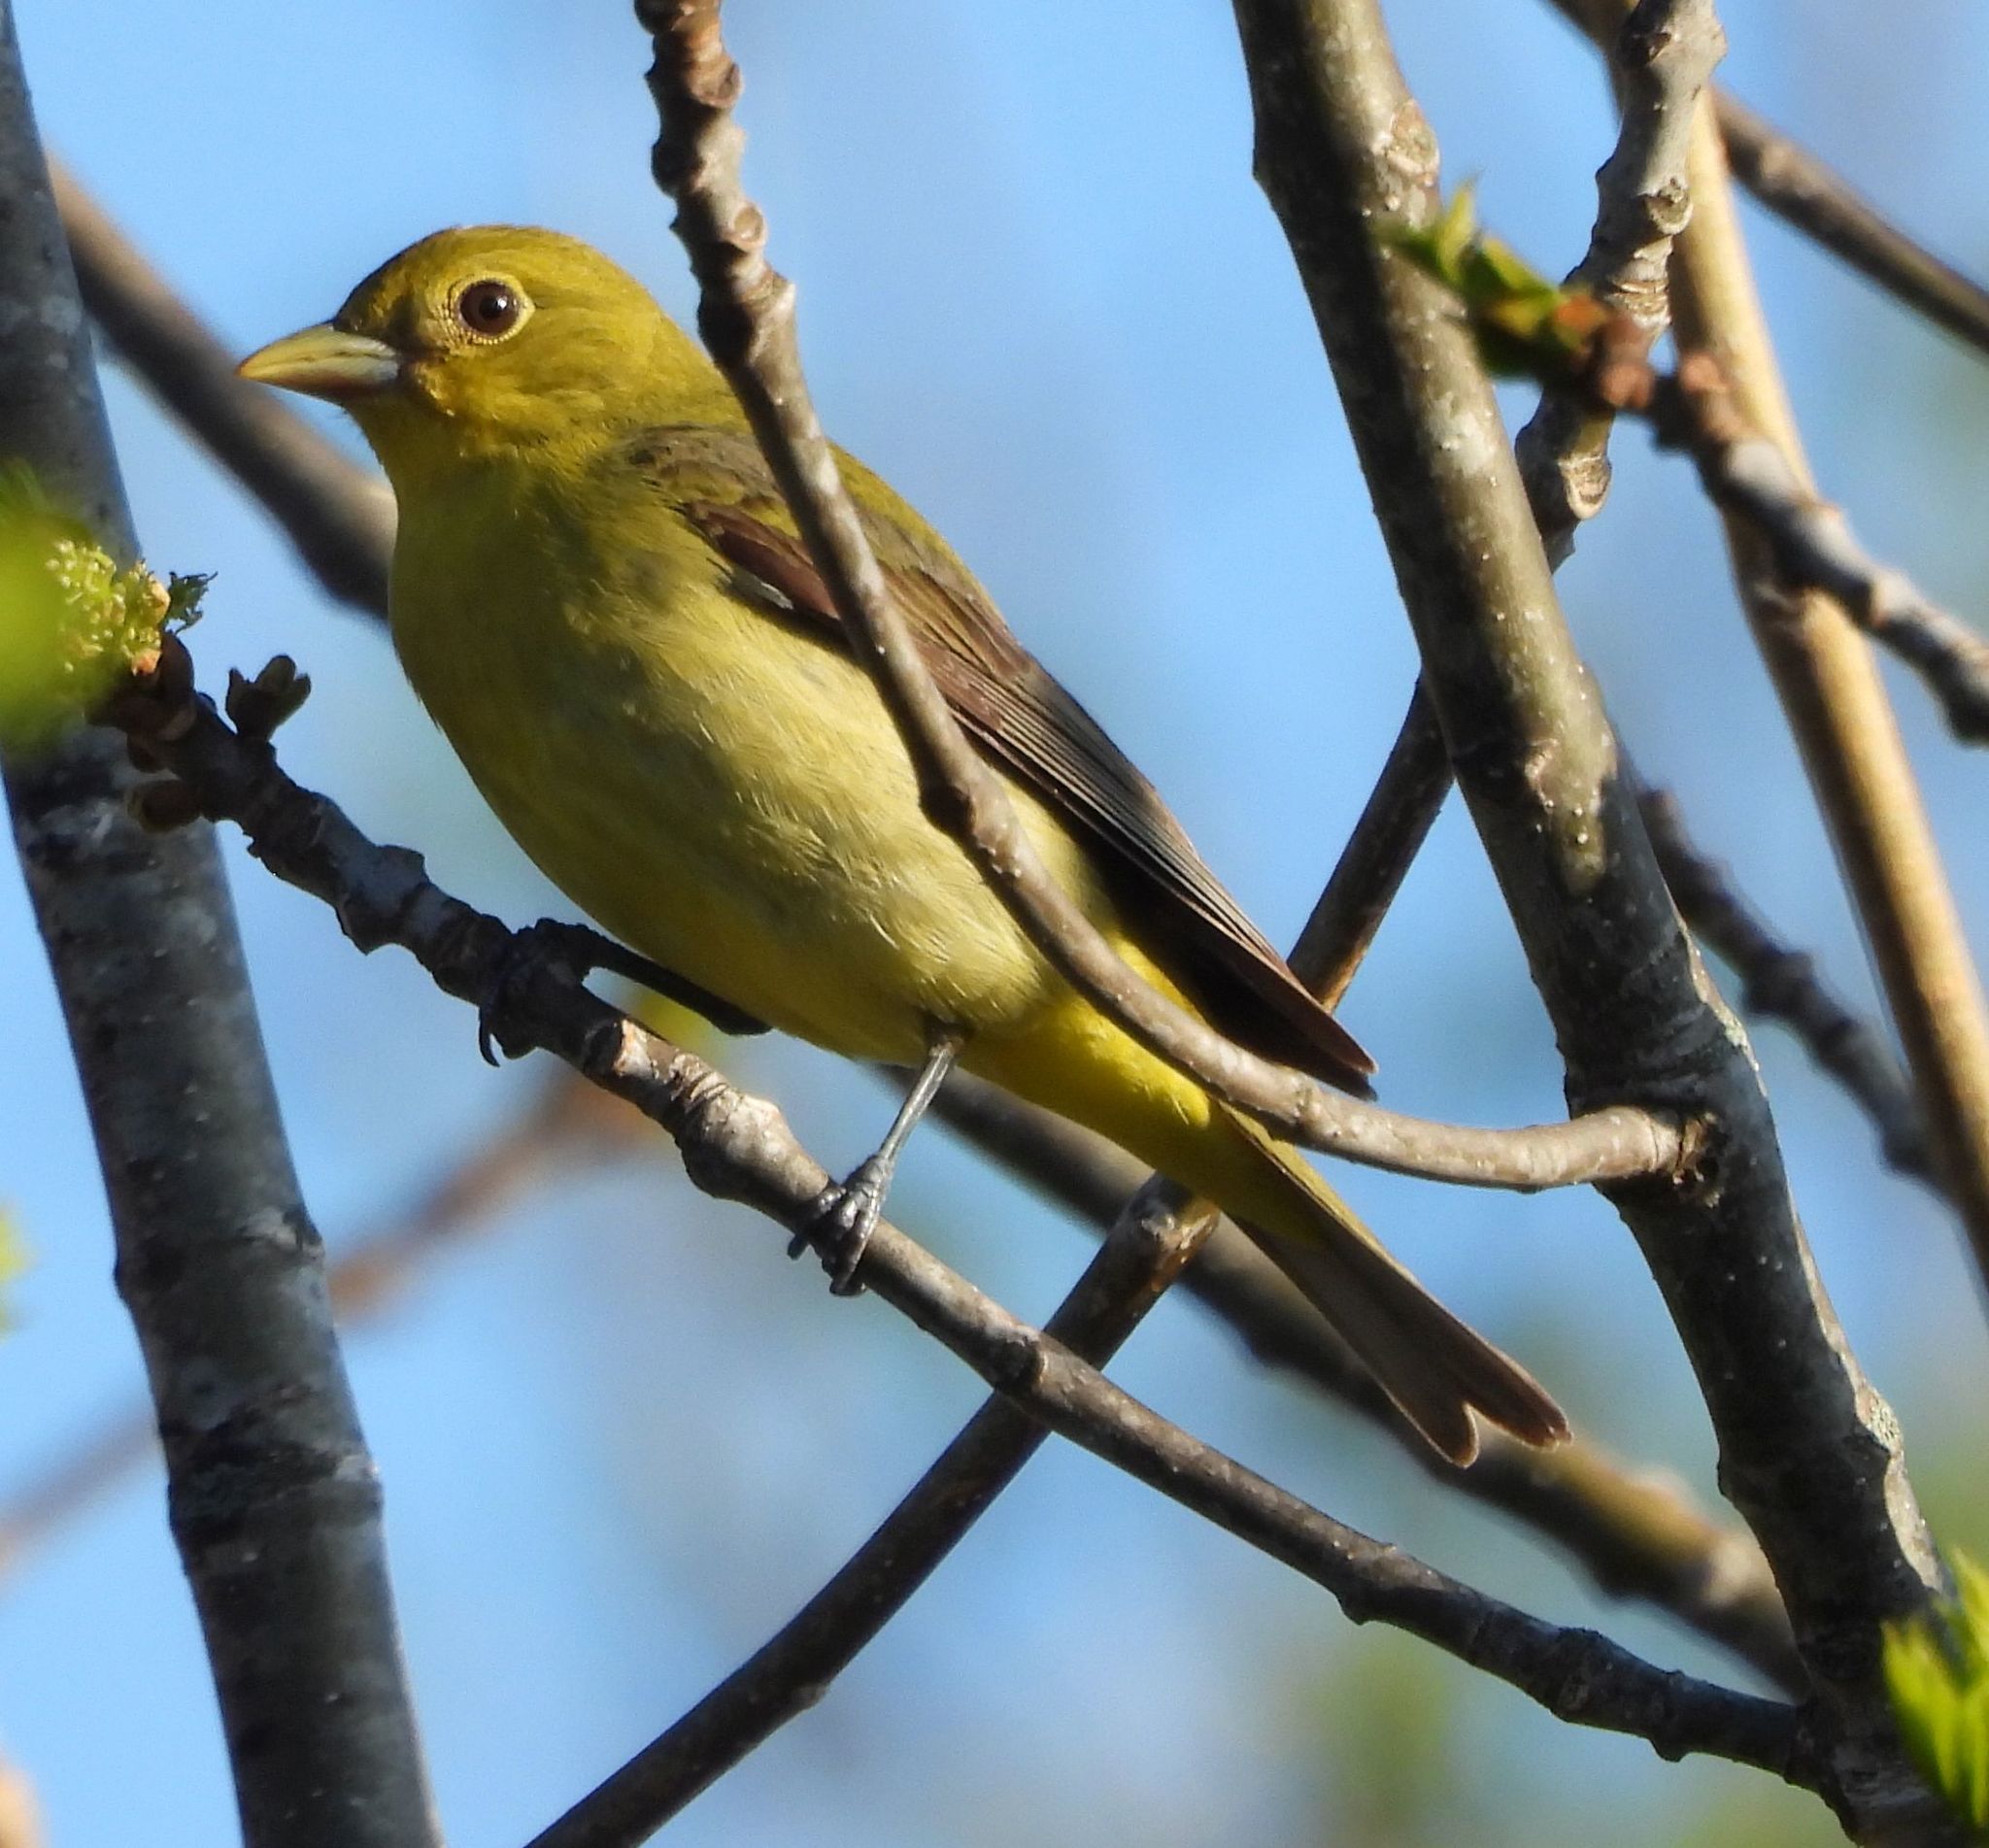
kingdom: Animalia
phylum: Chordata
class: Aves
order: Passeriformes
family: Cardinalidae
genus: Piranga
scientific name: Piranga olivacea
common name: Scarlet tanager
